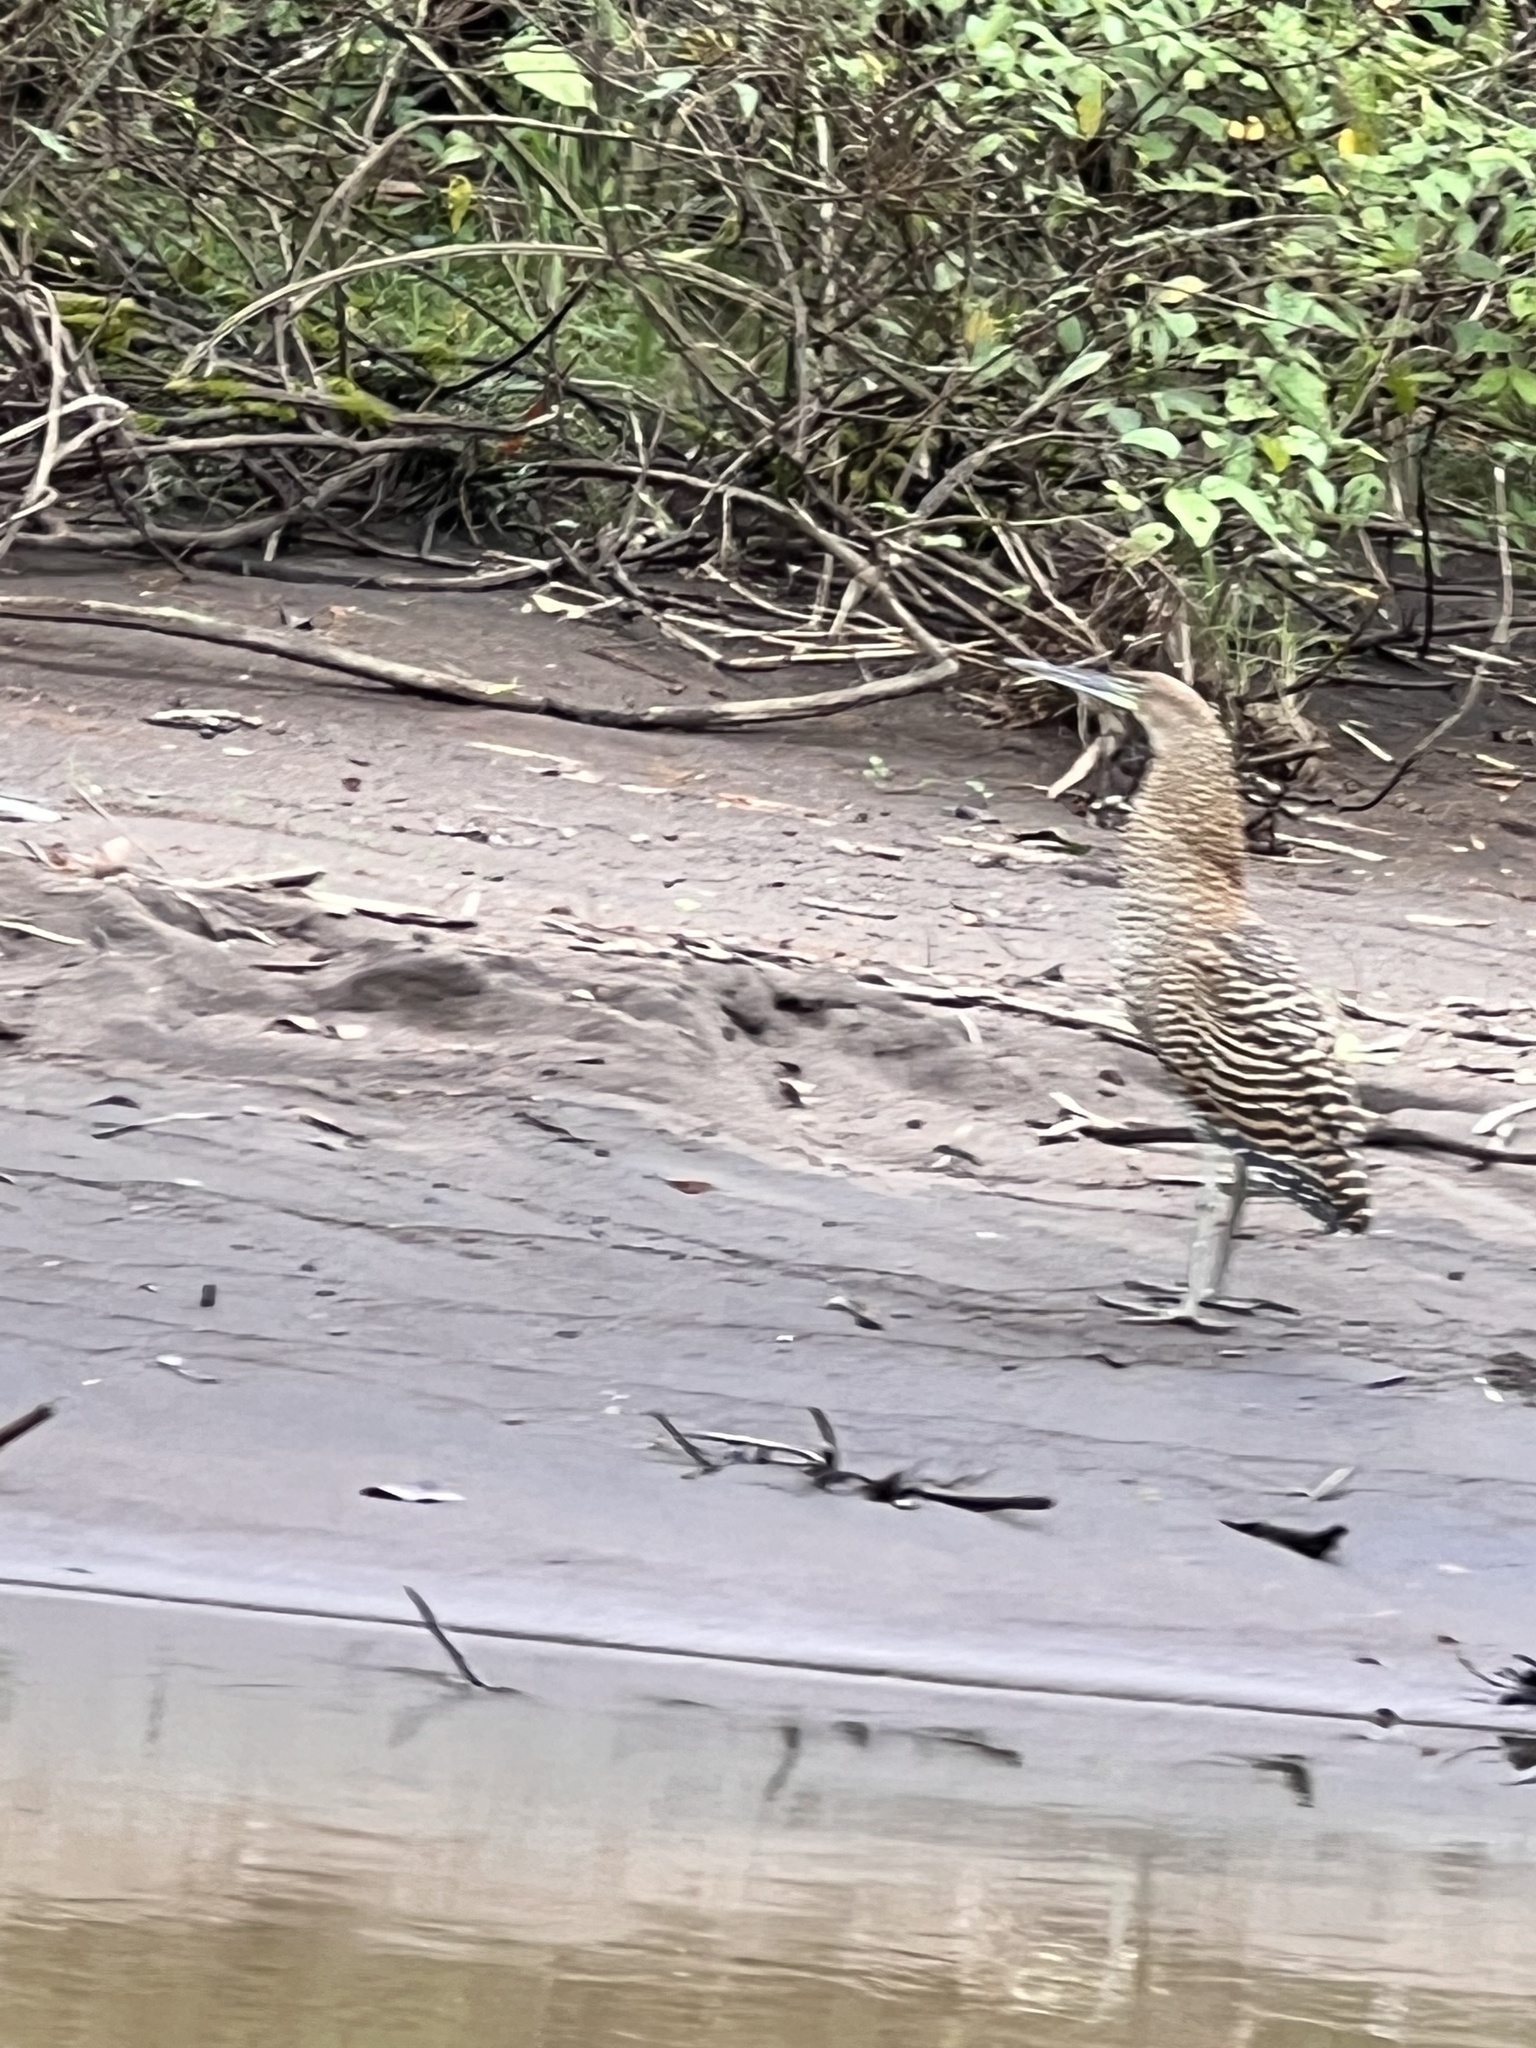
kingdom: Animalia
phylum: Chordata
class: Aves
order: Pelecaniformes
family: Ardeidae
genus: Tigrisoma
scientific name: Tigrisoma mexicanum
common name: Bare-throated tiger-heron
